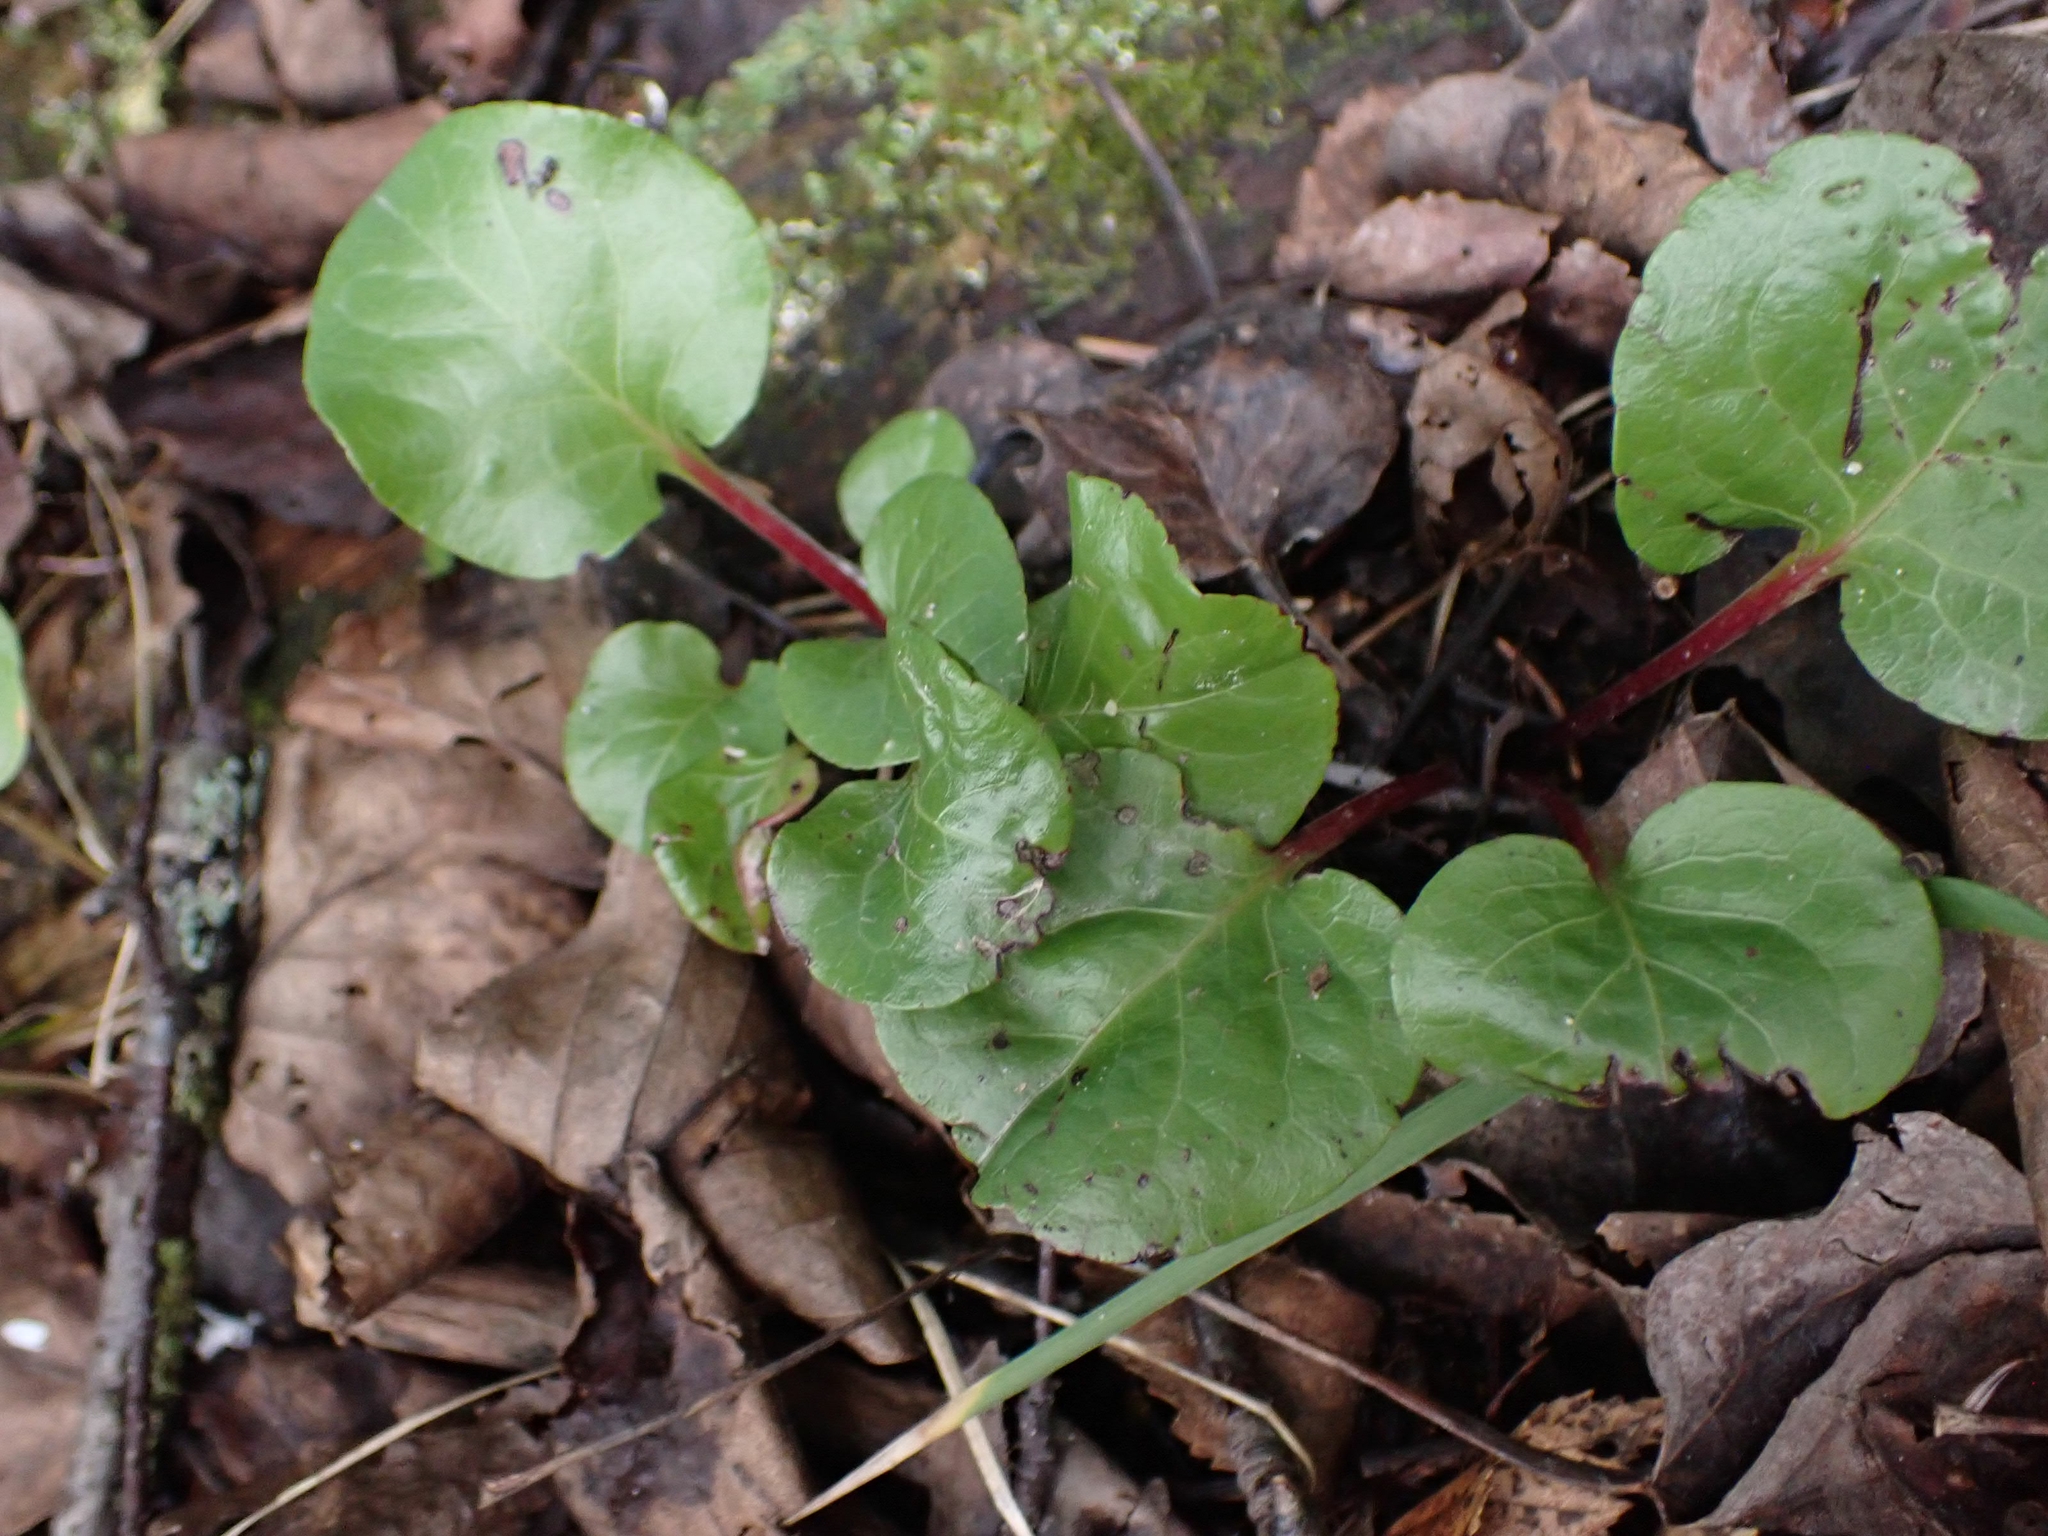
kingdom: Plantae
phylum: Tracheophyta
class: Magnoliopsida
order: Ericales
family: Ericaceae
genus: Pyrola
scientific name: Pyrola asarifolia
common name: Bog wintergreen
